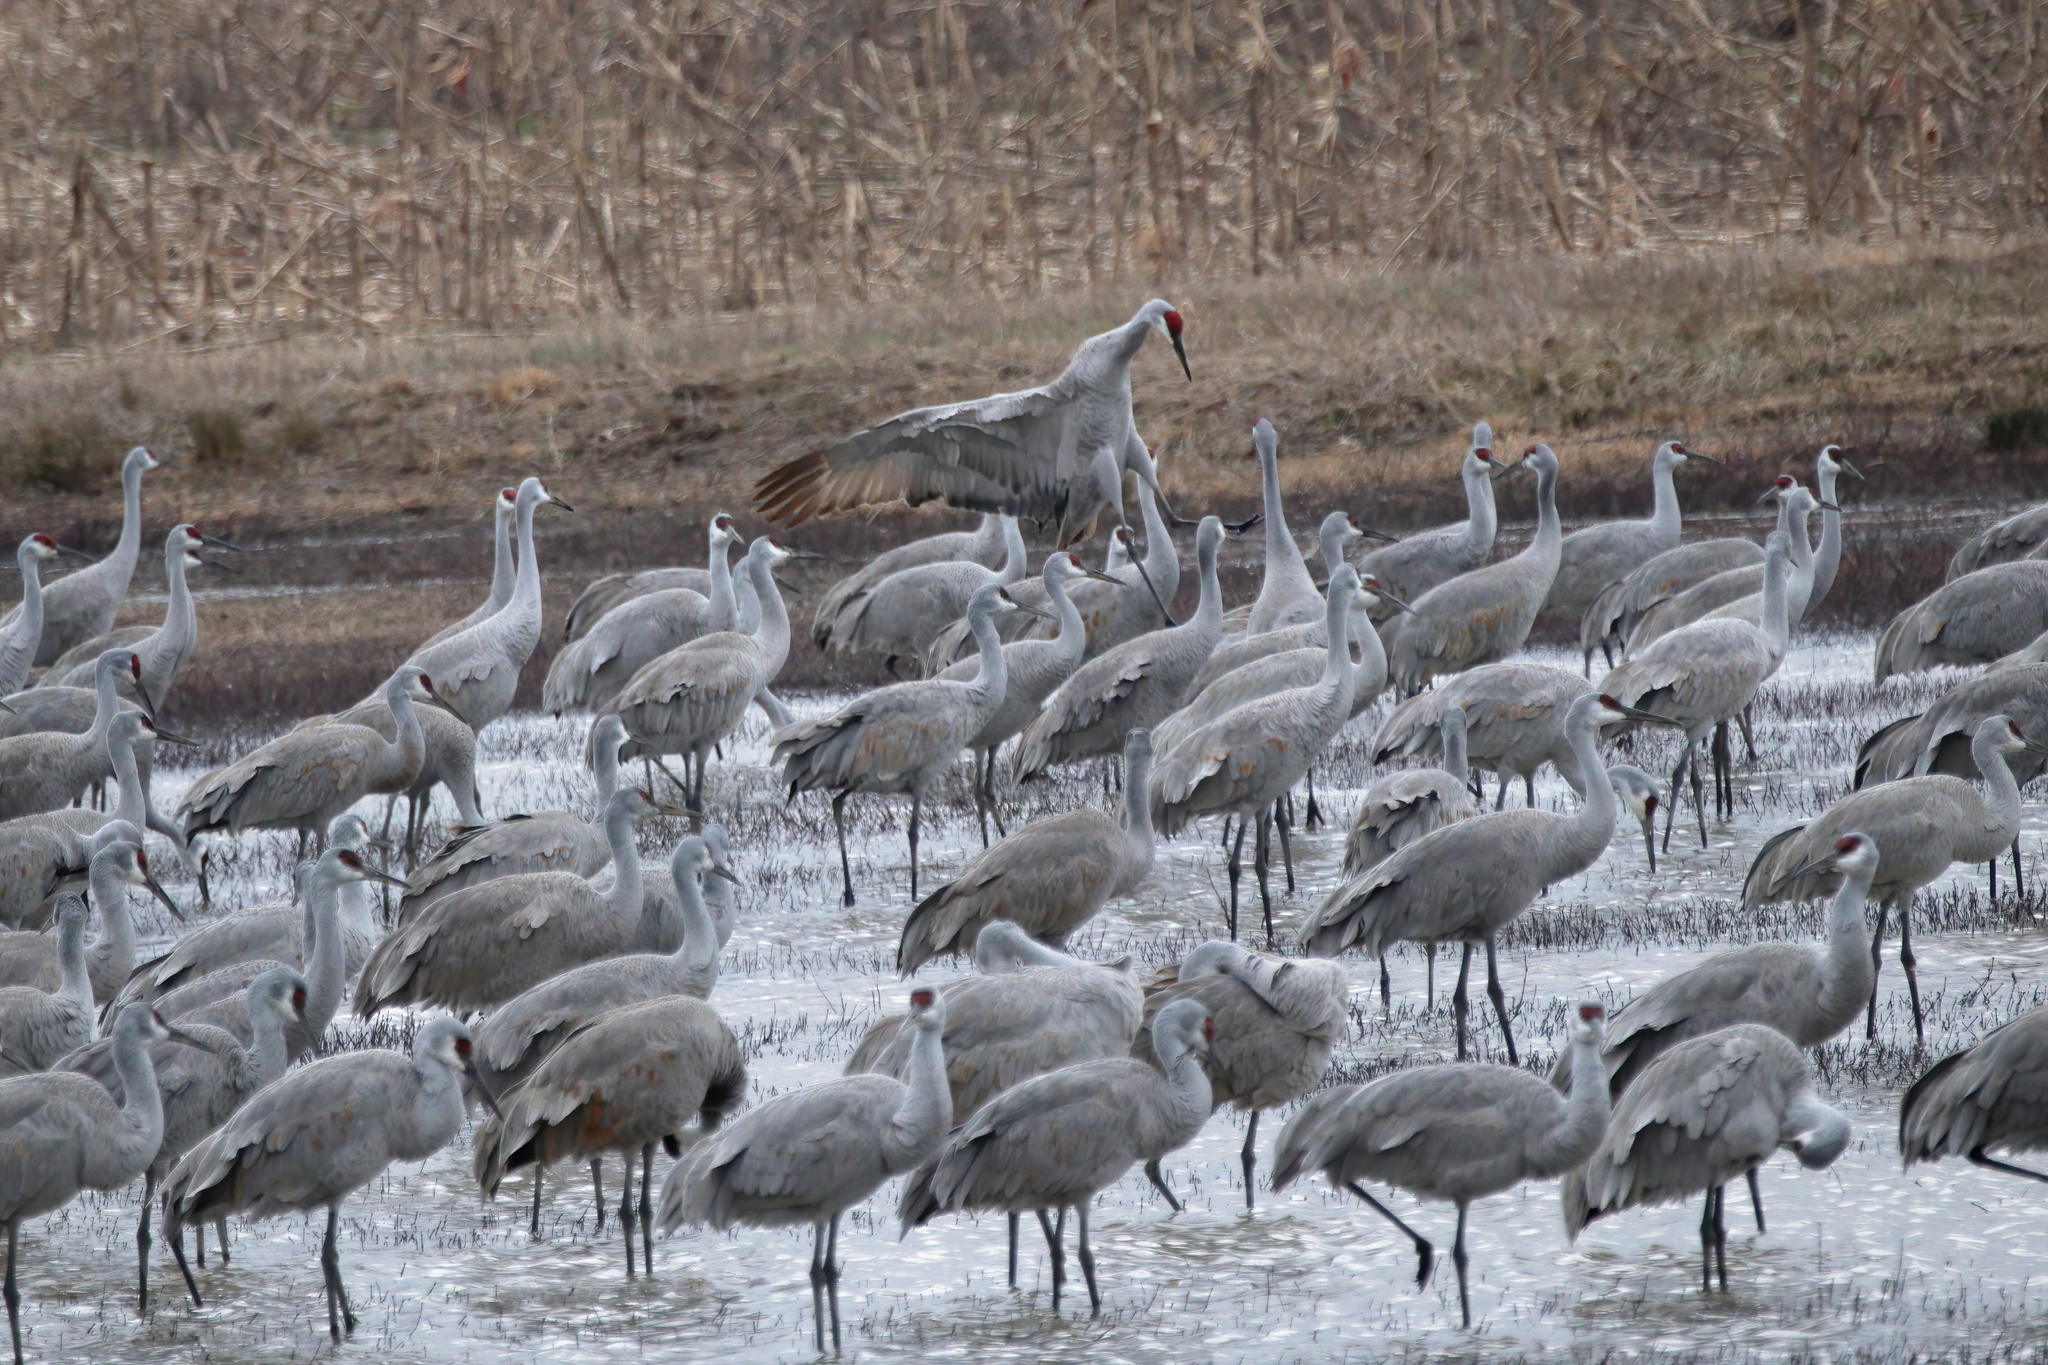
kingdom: Animalia
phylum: Chordata
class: Aves
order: Gruiformes
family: Gruidae
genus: Grus
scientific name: Grus canadensis
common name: Sandhill crane
